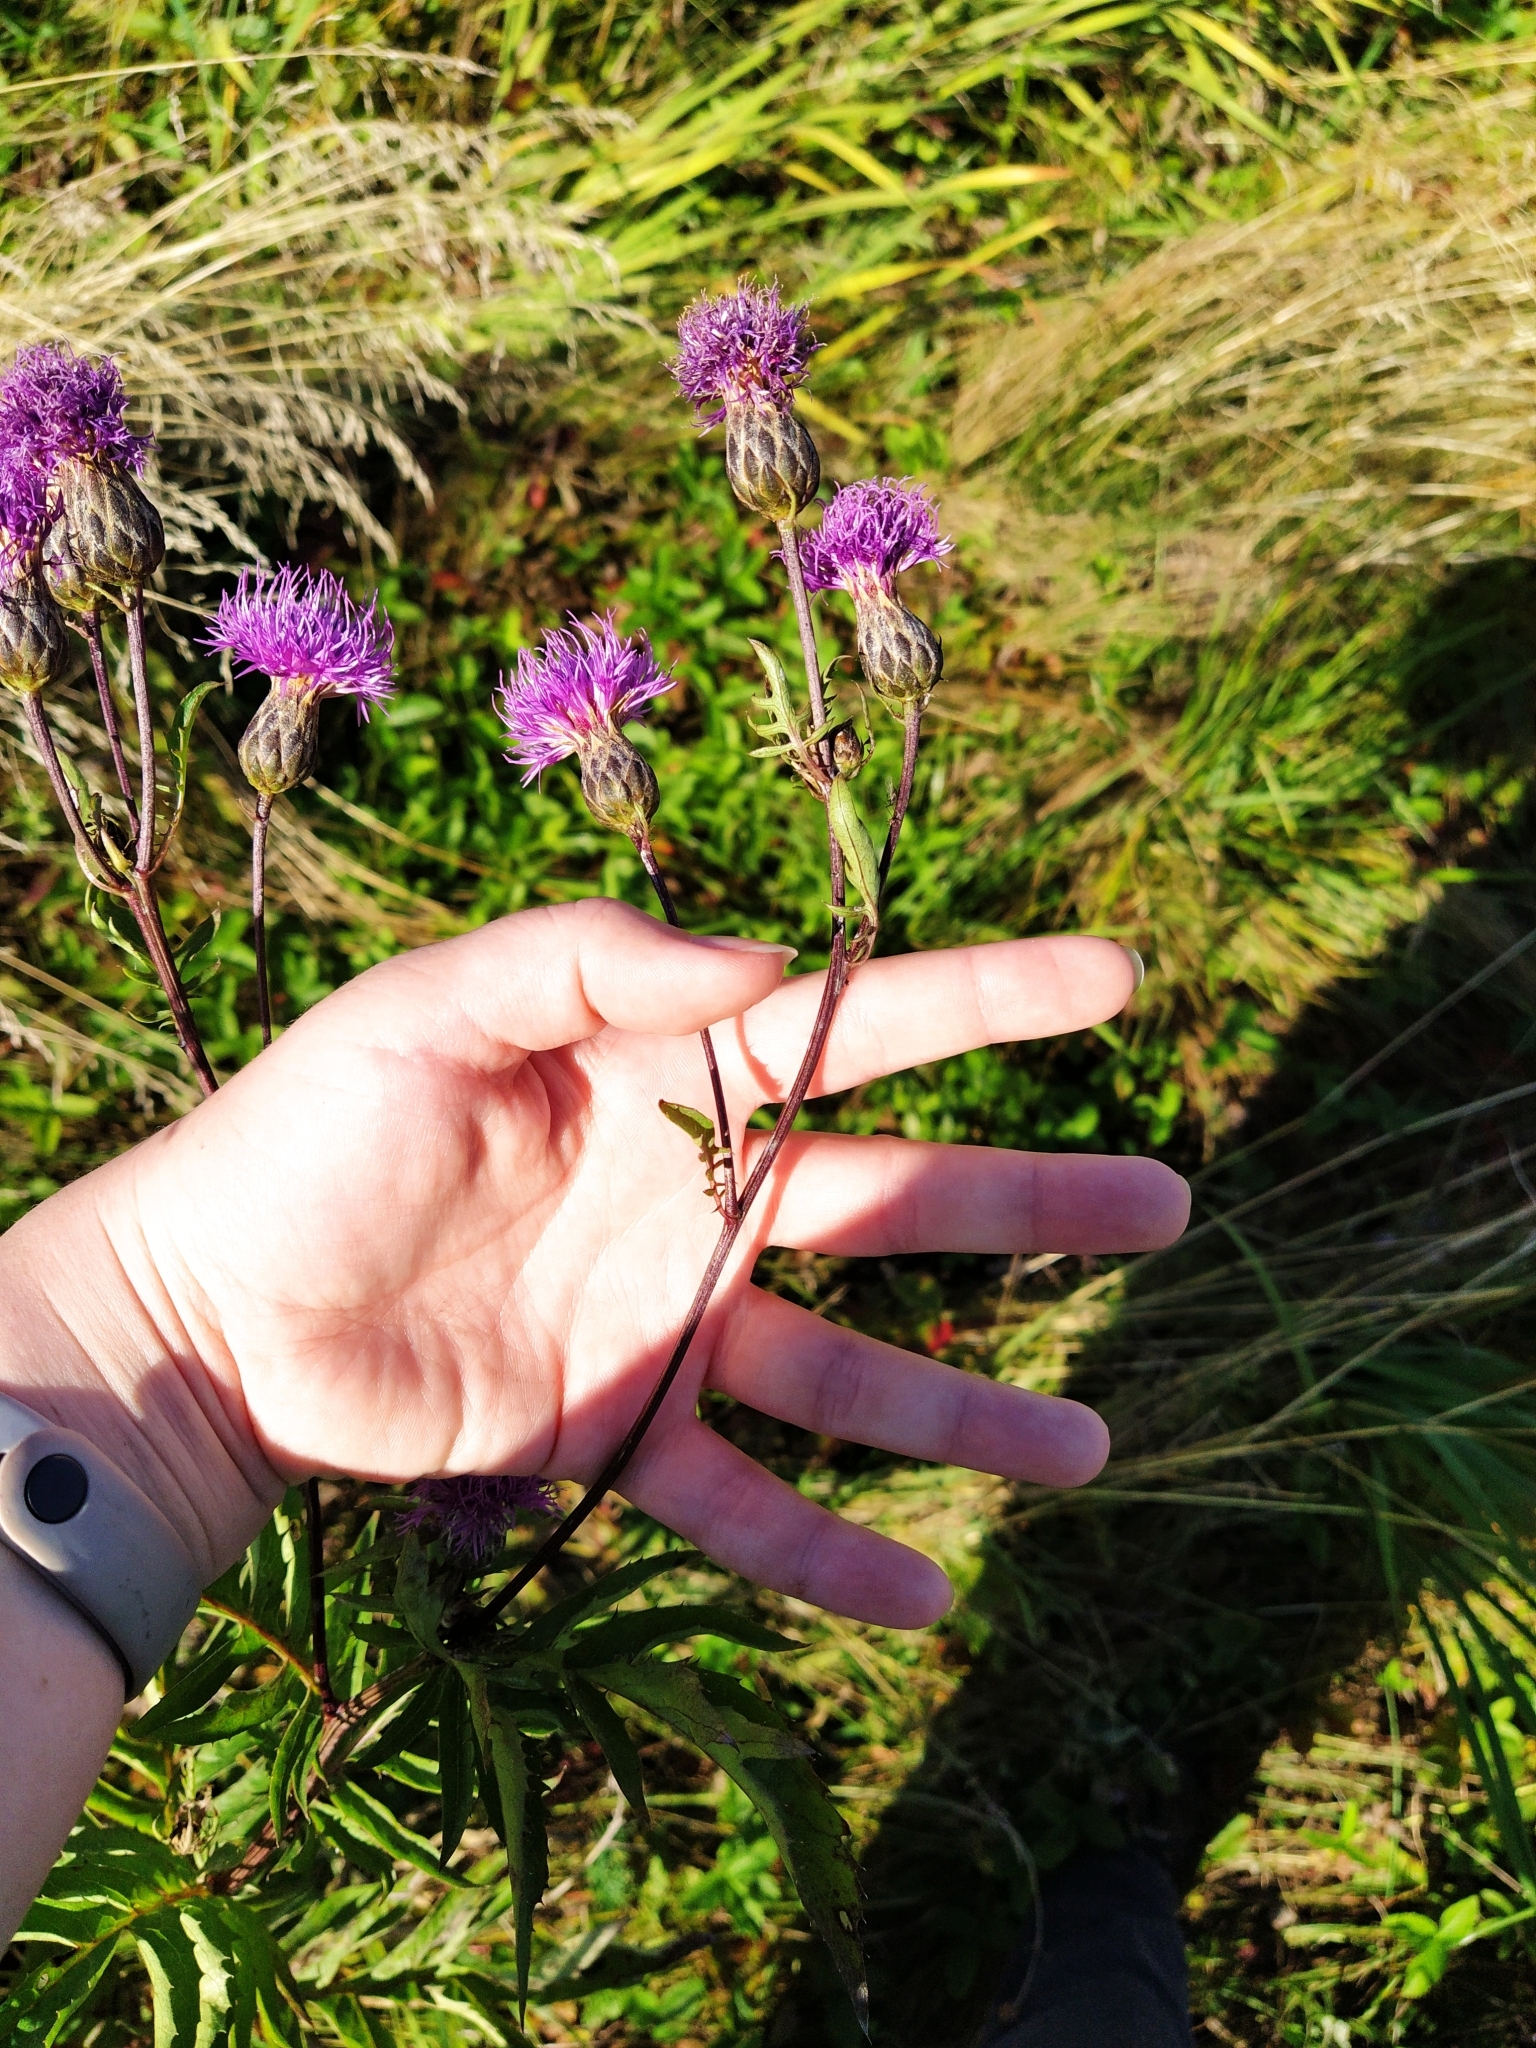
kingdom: Plantae
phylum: Tracheophyta
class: Magnoliopsida
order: Asterales
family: Asteraceae
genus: Serratula
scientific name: Serratula coronata
